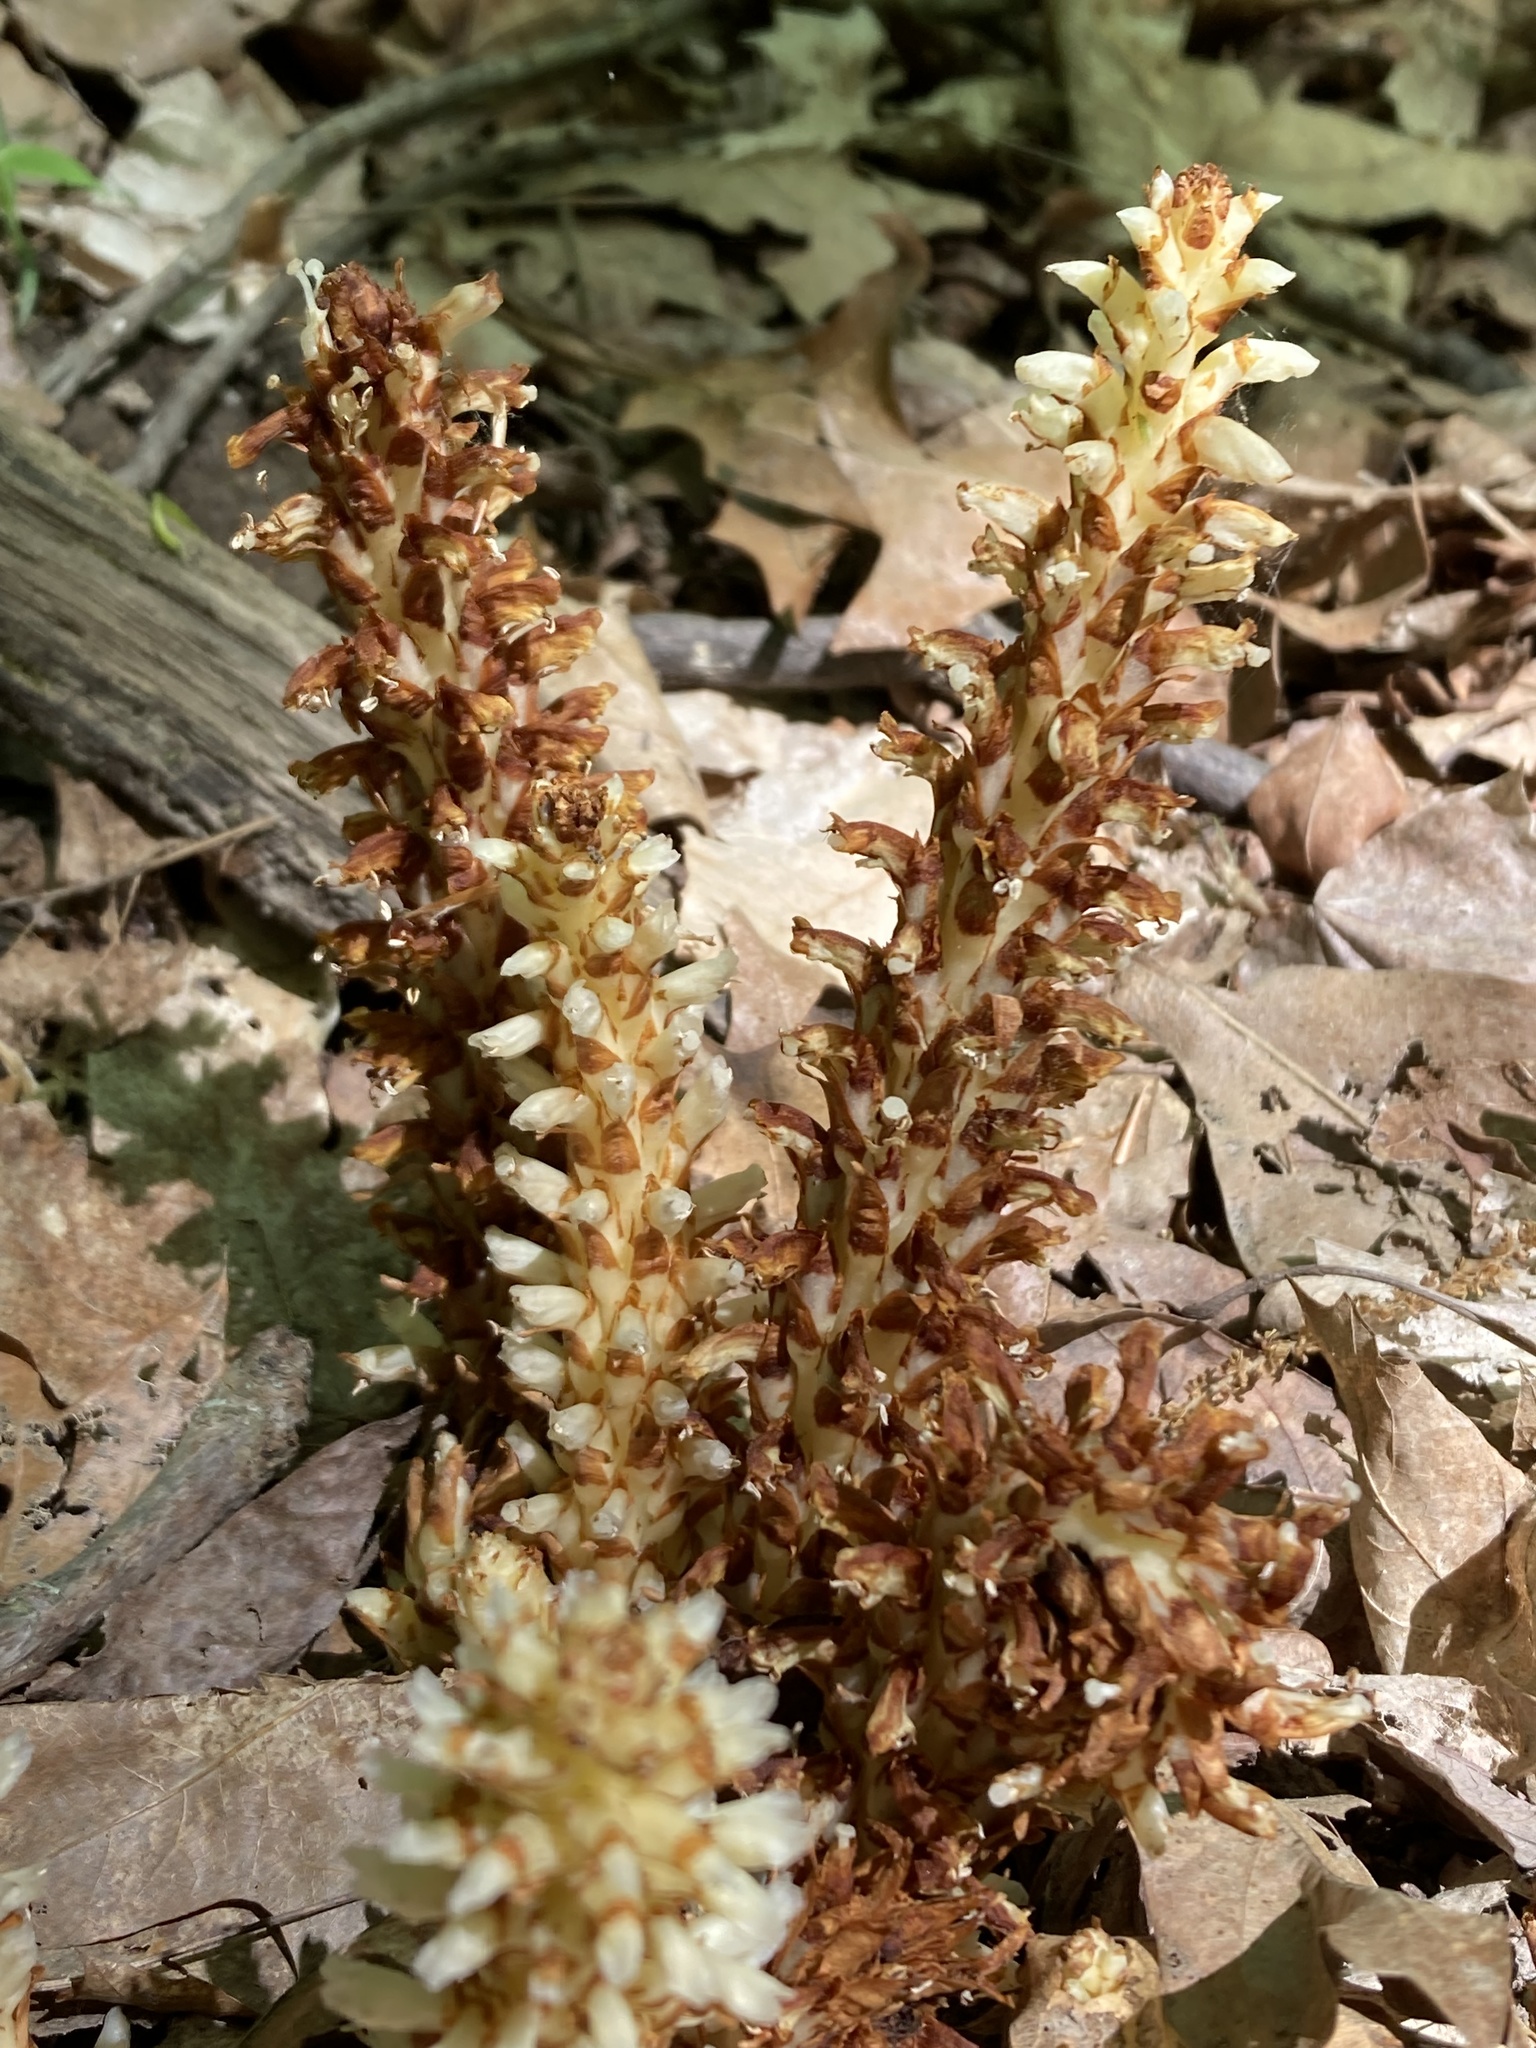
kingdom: Plantae
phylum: Tracheophyta
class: Magnoliopsida
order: Lamiales
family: Orobanchaceae
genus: Conopholis
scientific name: Conopholis americana
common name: American cancer-root
